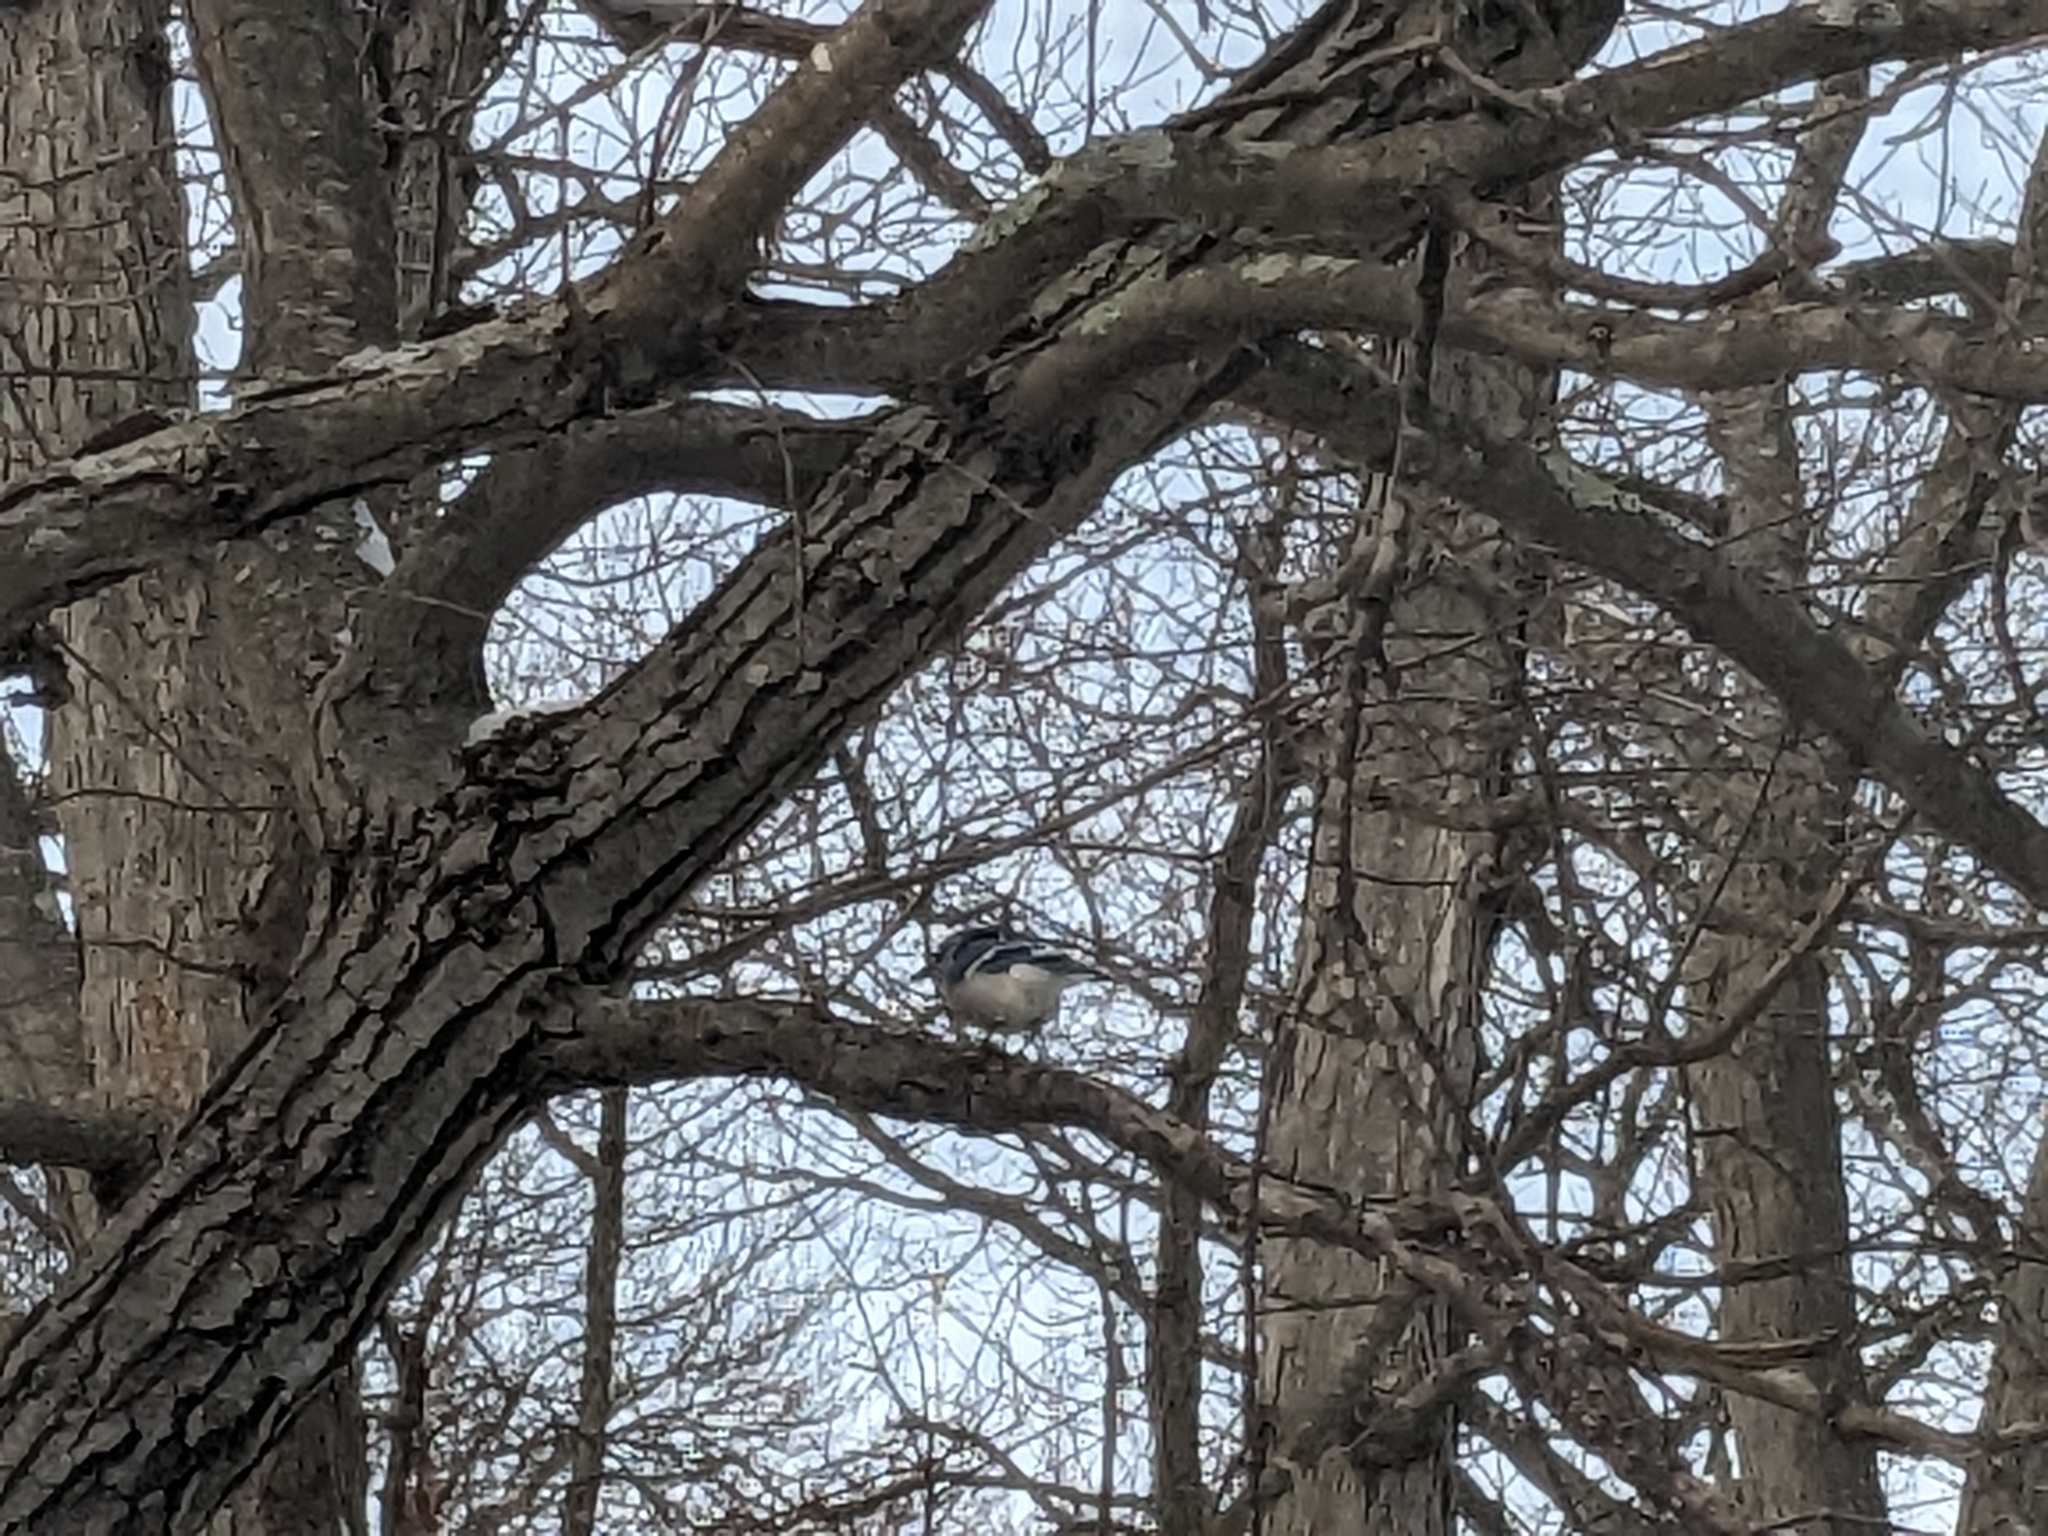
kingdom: Animalia
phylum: Chordata
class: Aves
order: Passeriformes
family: Corvidae
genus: Cyanocitta
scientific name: Cyanocitta cristata
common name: Blue jay
